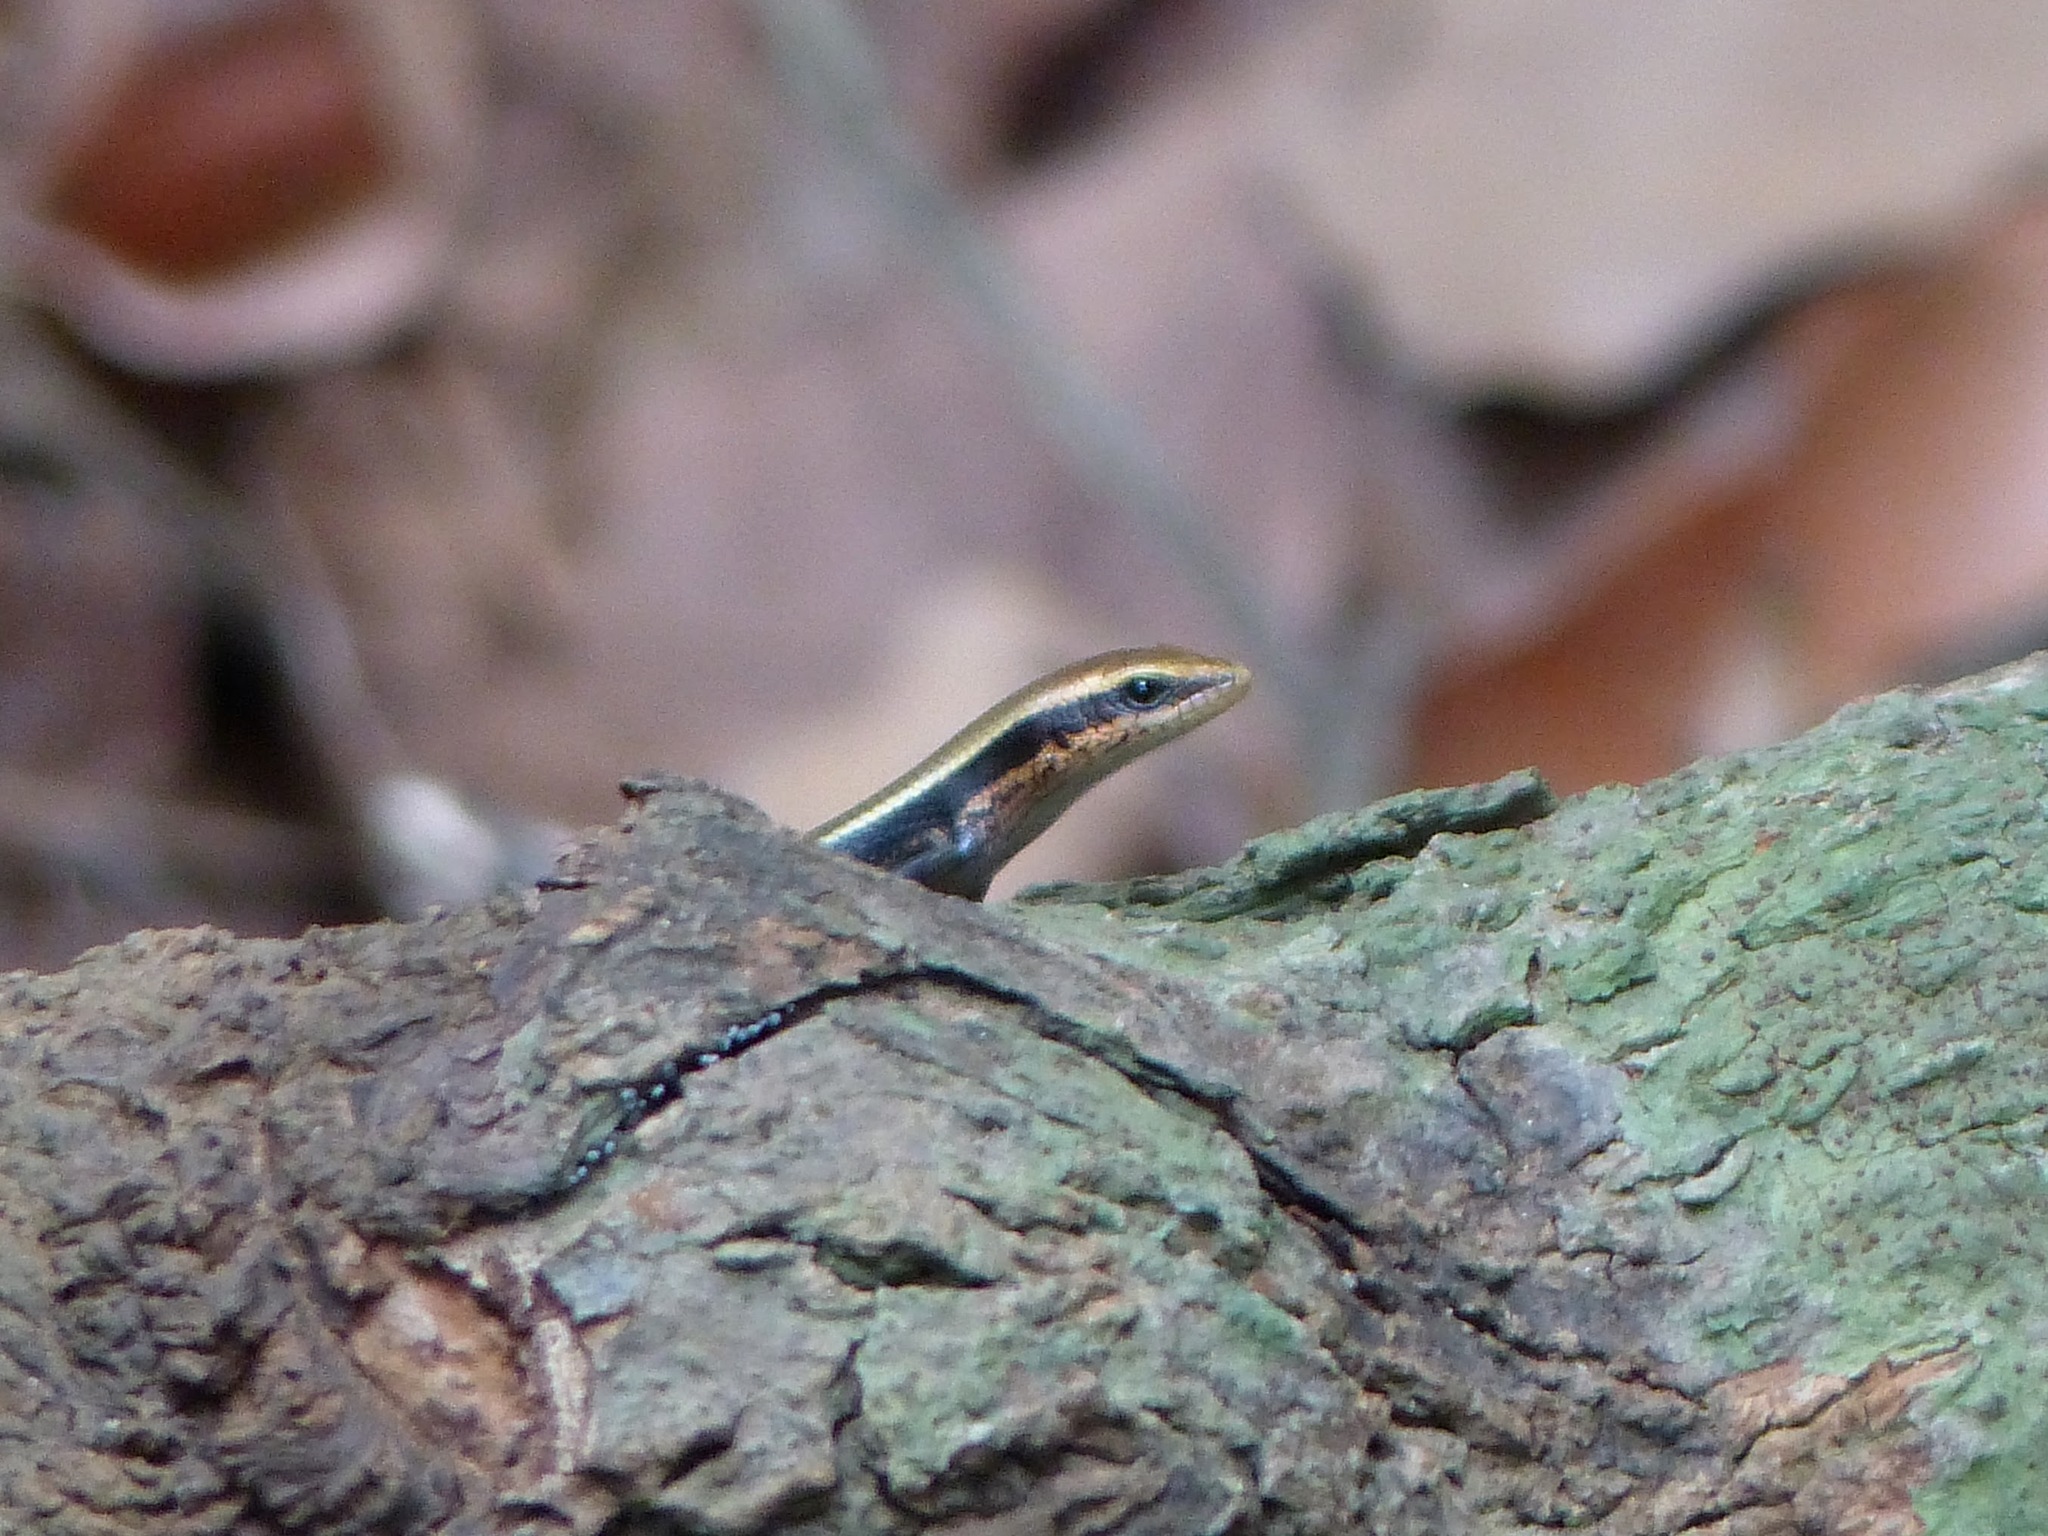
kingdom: Animalia
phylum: Chordata
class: Squamata
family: Scincidae
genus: Eutropis
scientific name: Eutropis madaraszi
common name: Sri lanka bronze skink
